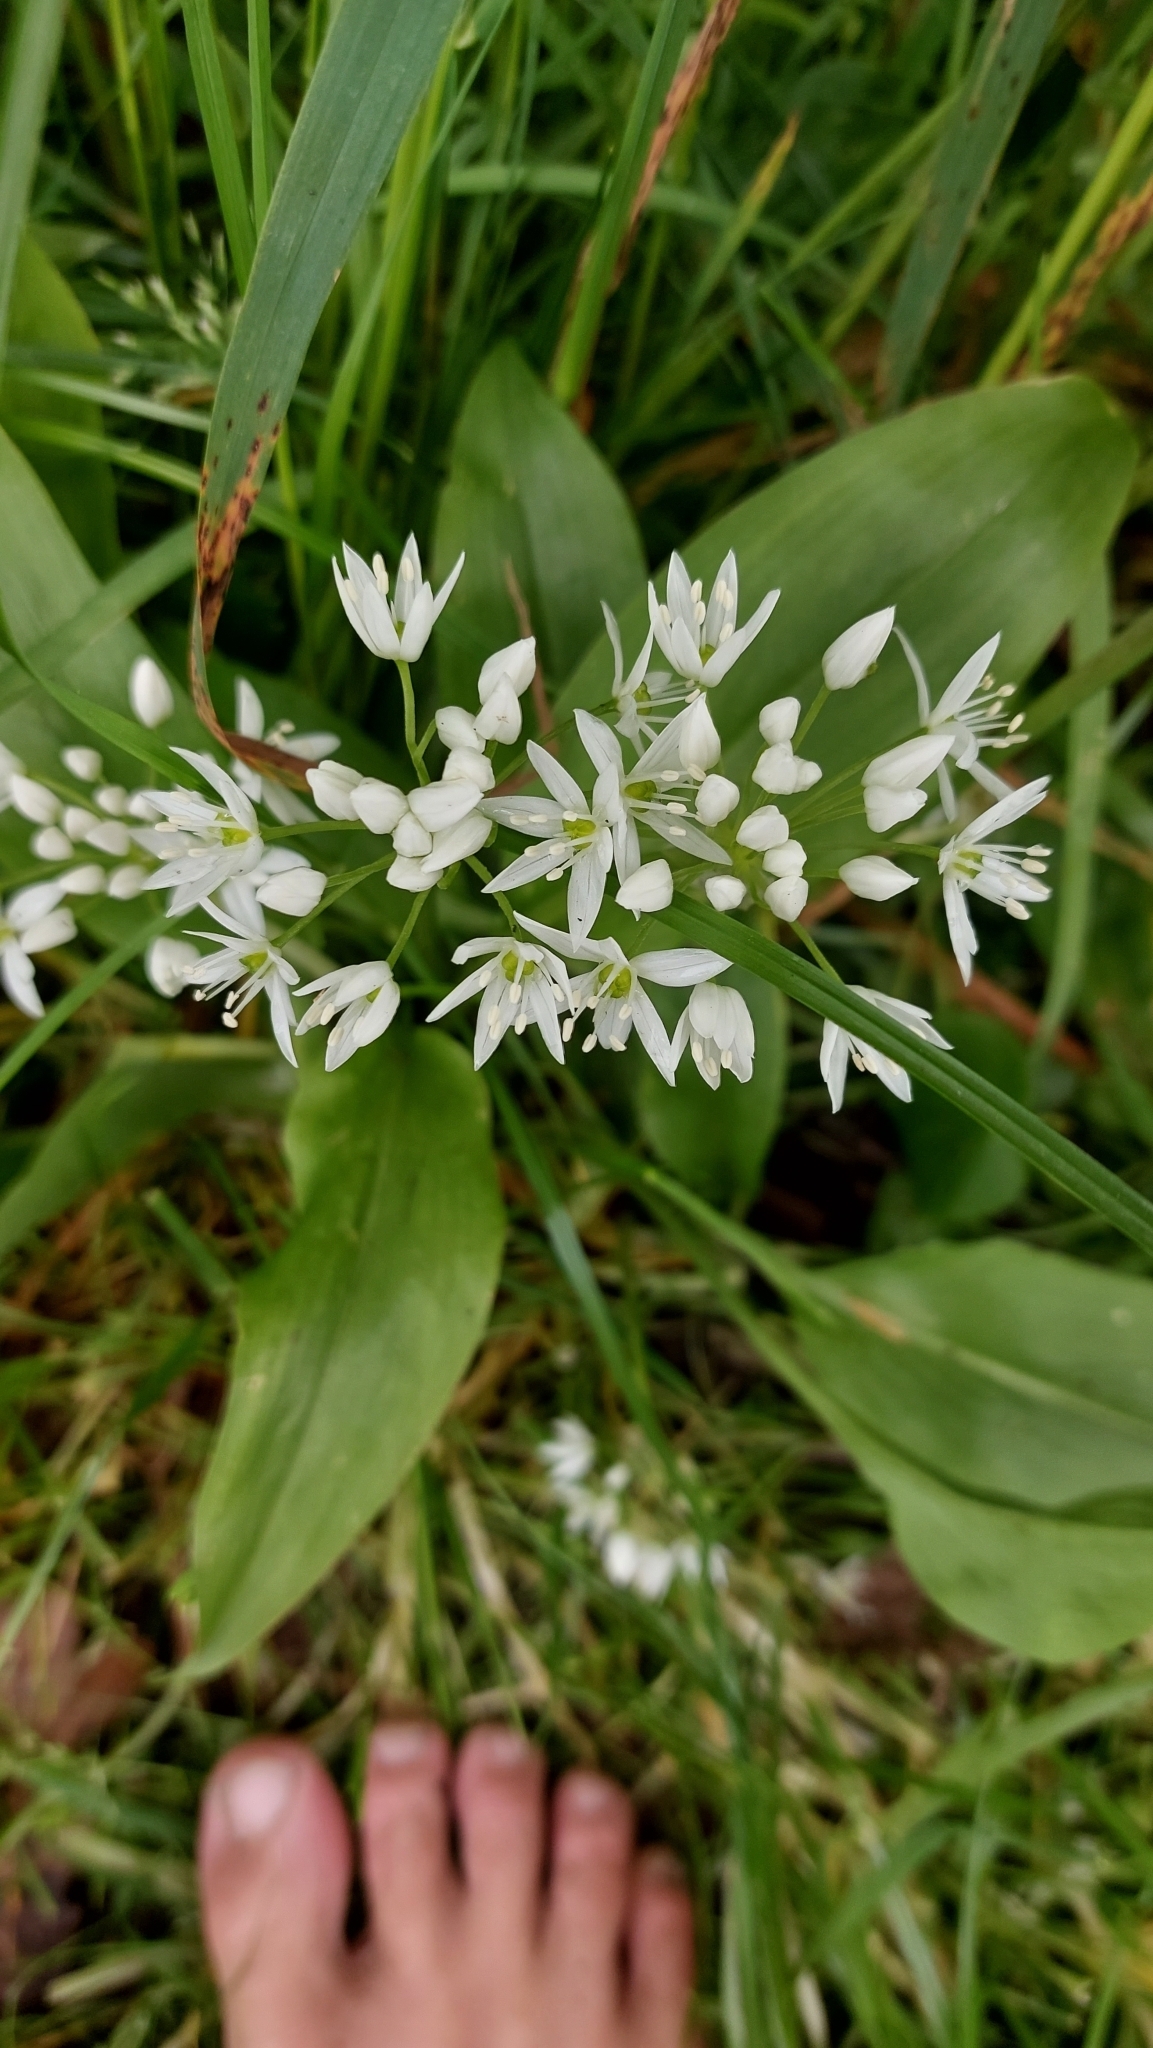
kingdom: Plantae
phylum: Tracheophyta
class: Liliopsida
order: Asparagales
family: Amaryllidaceae
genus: Allium
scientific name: Allium ursinum
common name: Ramsons
